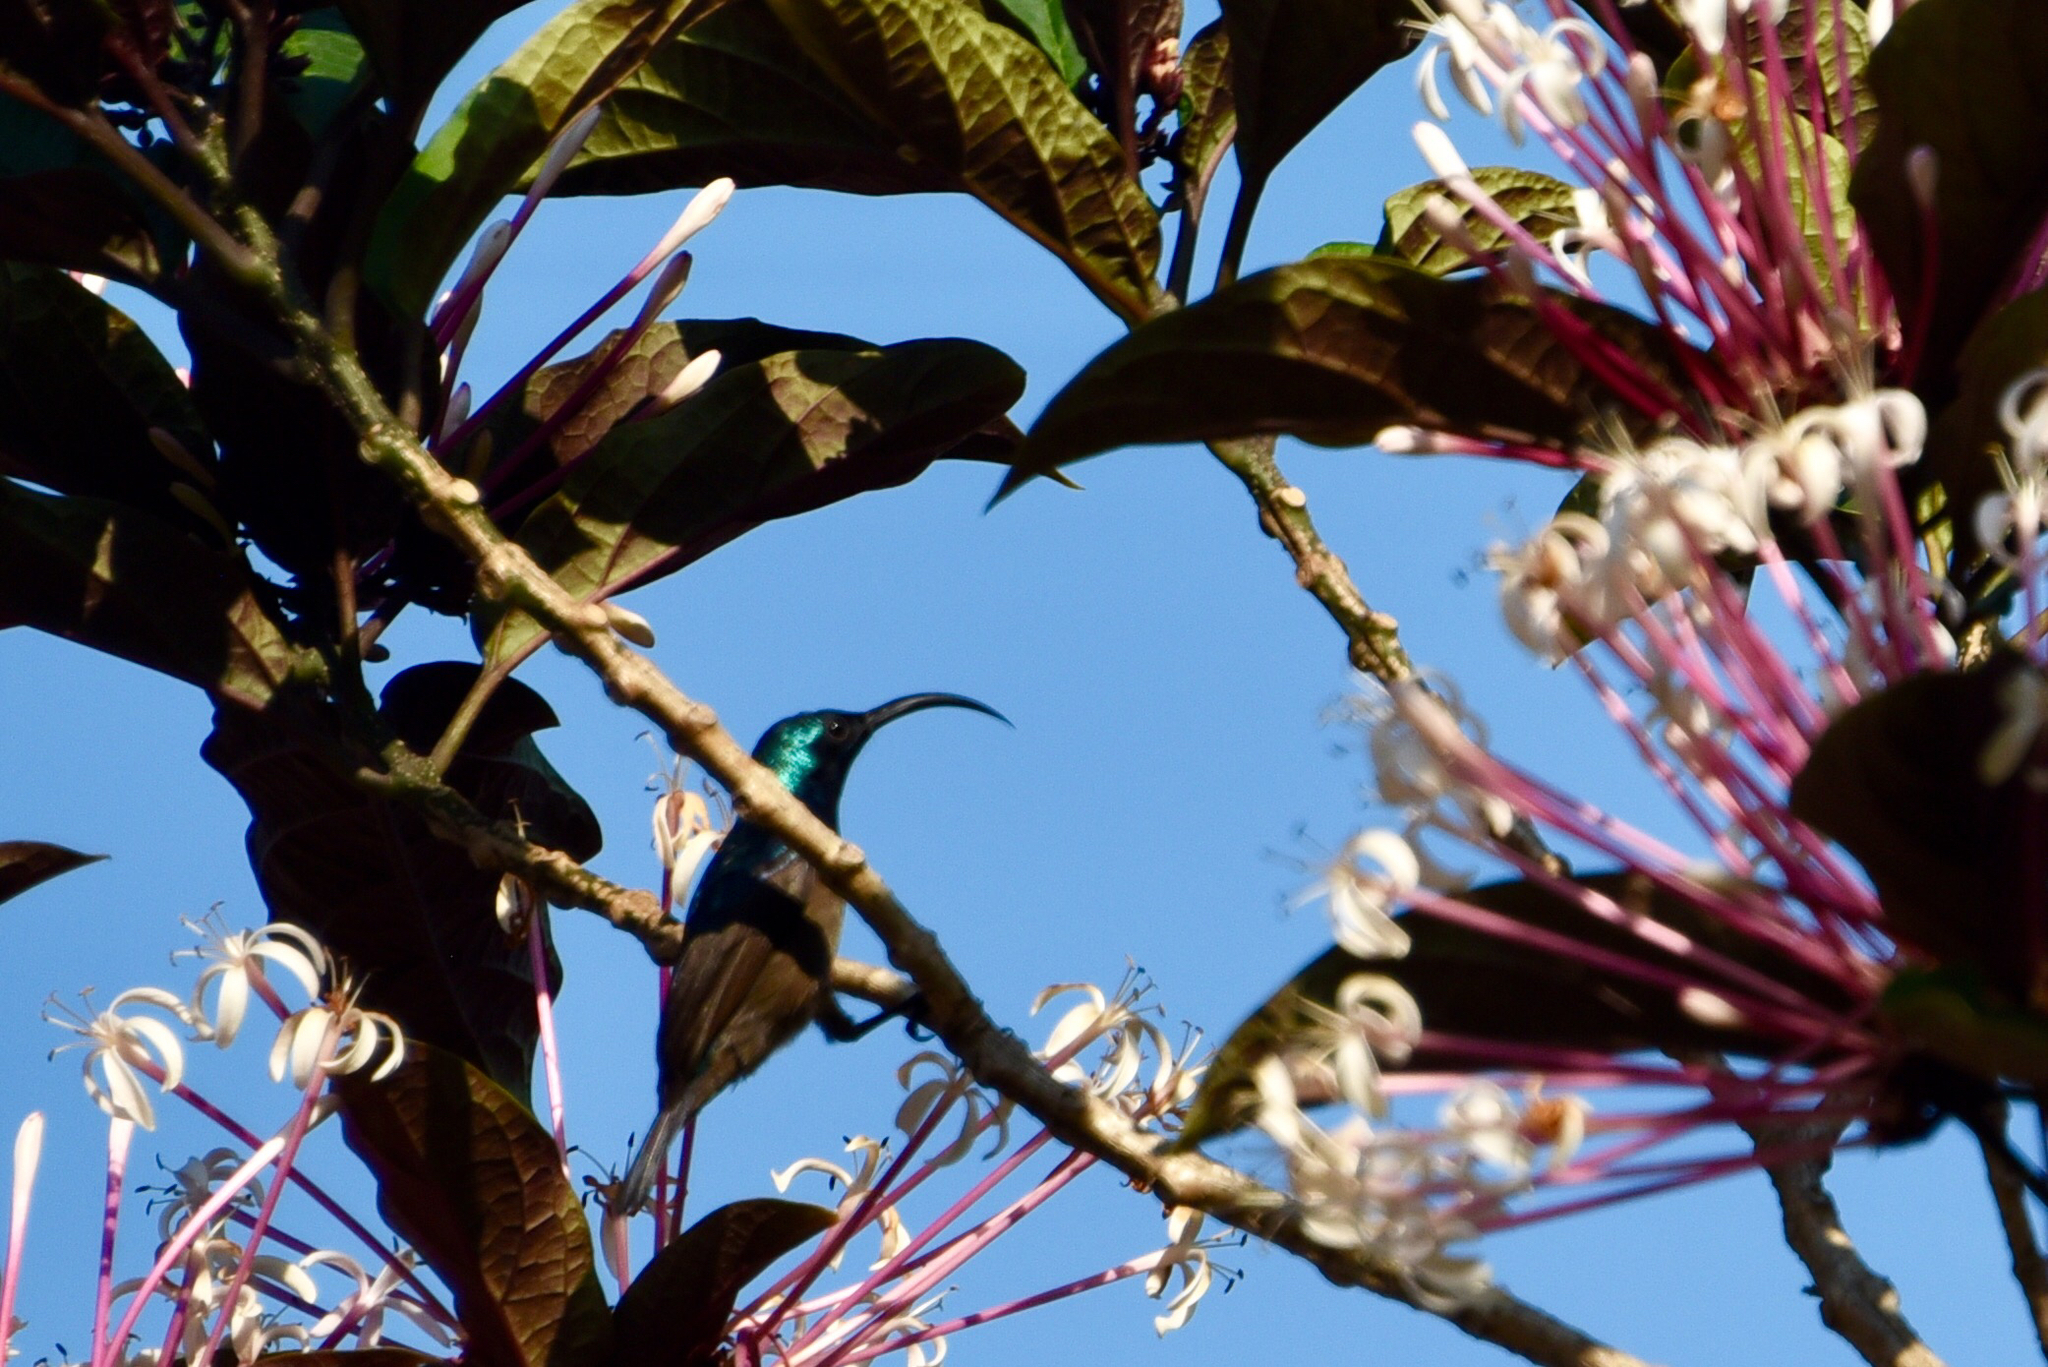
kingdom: Animalia
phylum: Chordata
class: Aves
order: Passeriformes
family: Nectariniidae
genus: Cinnyris
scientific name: Cinnyris lotenius
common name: Loten's sunbird
